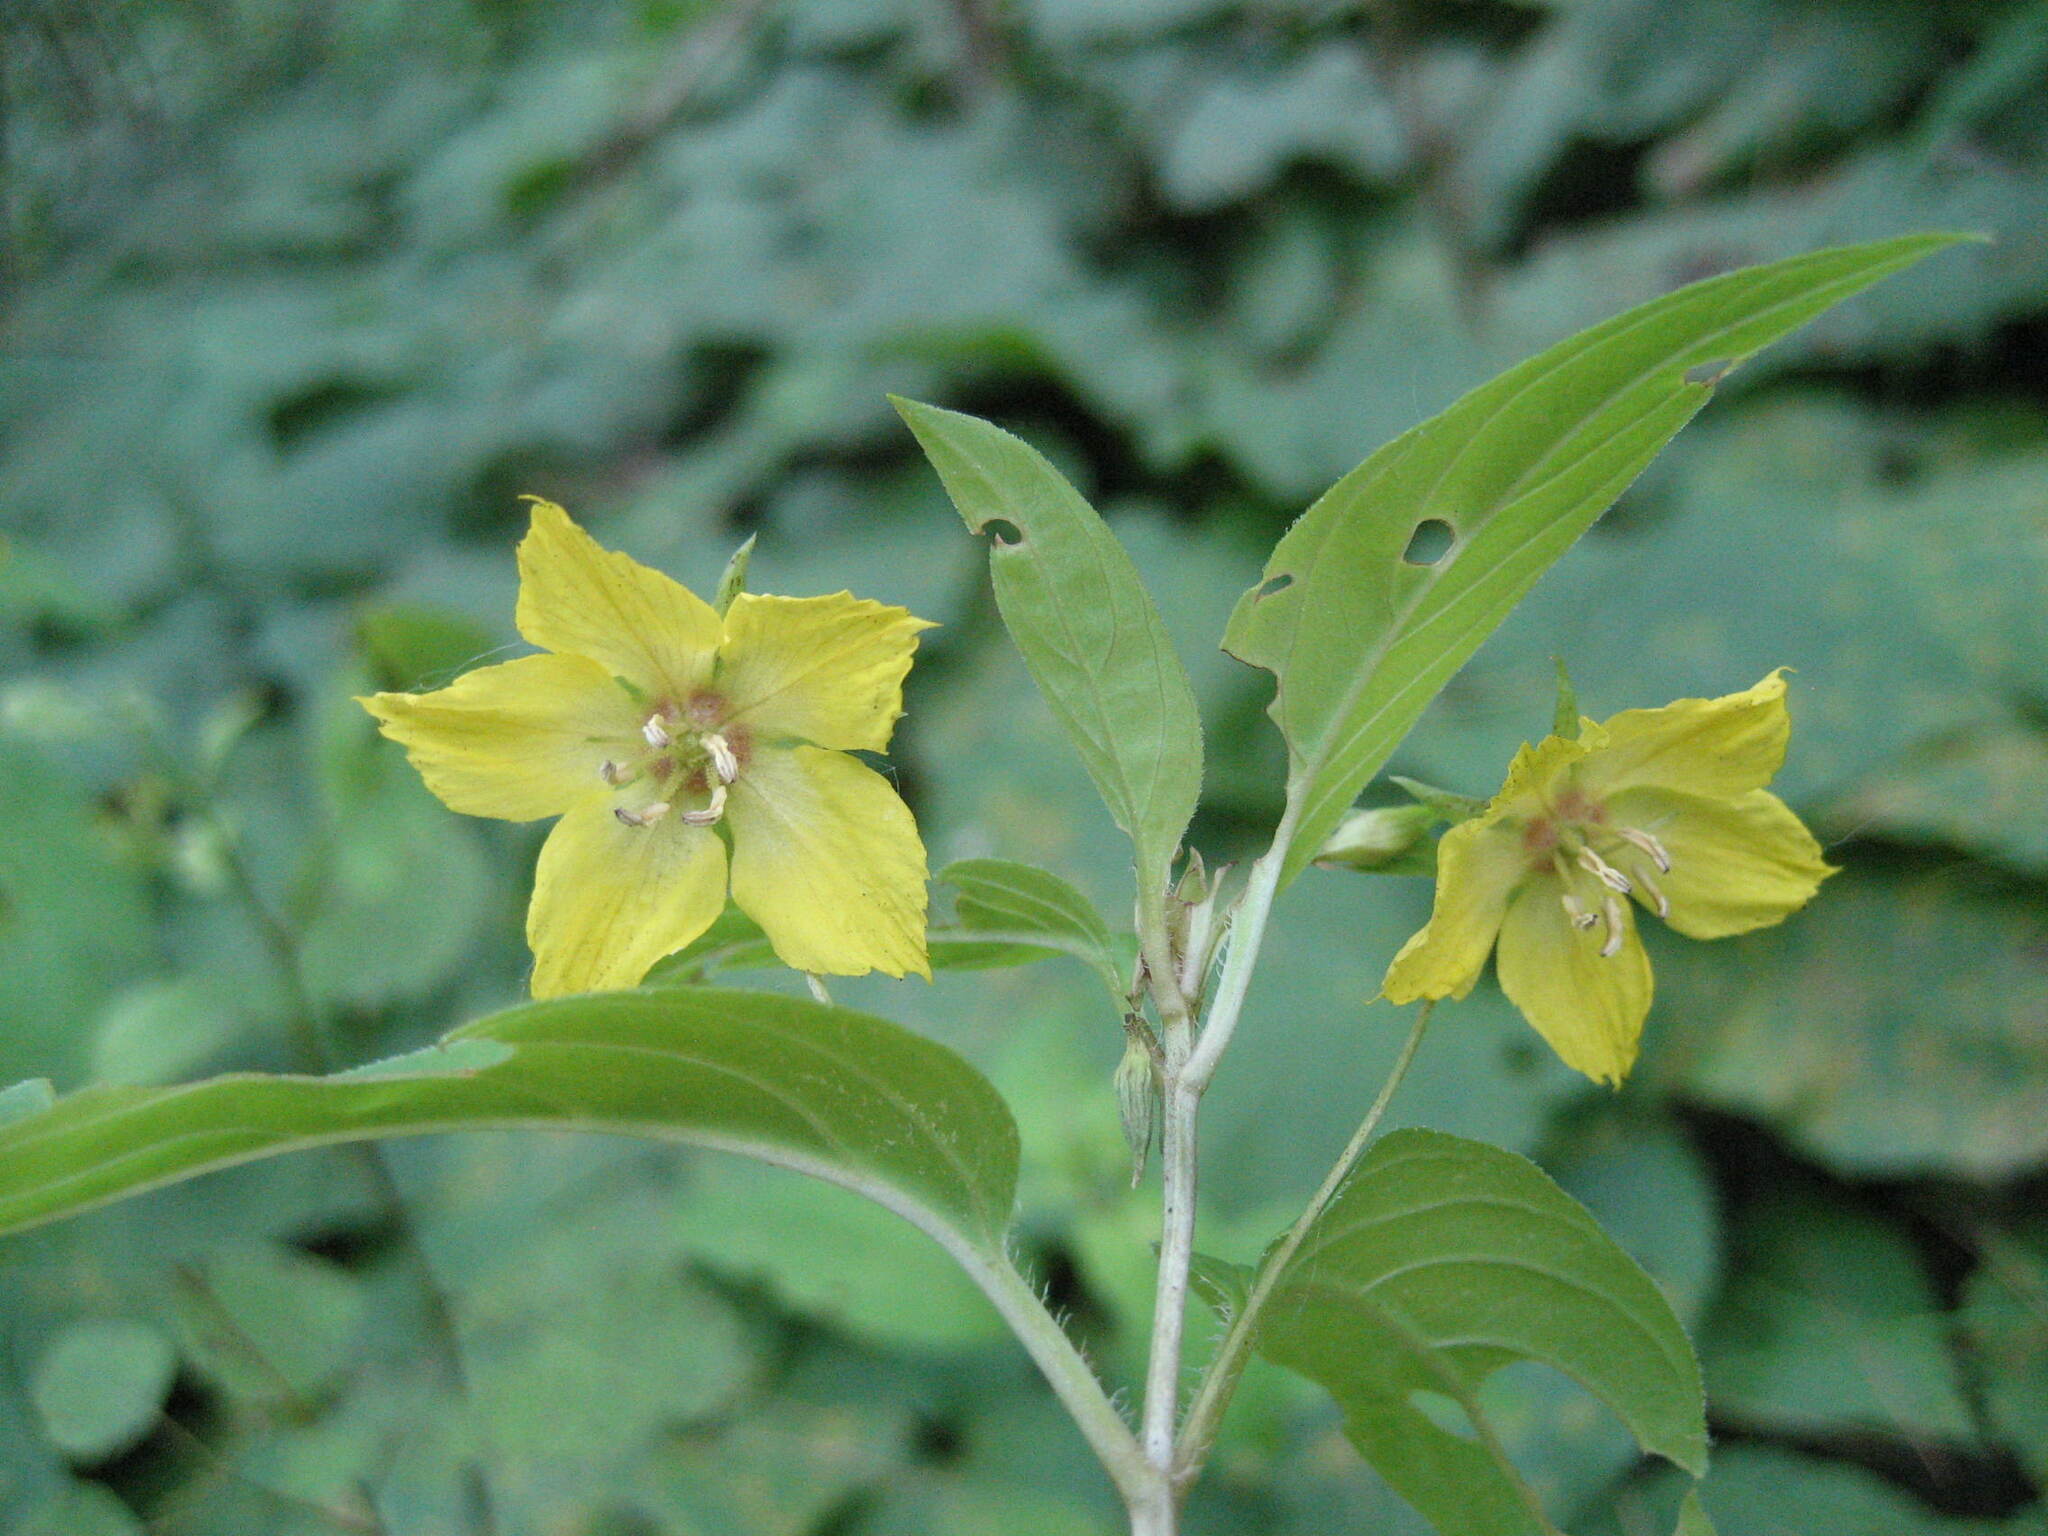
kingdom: Plantae
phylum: Tracheophyta
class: Magnoliopsida
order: Ericales
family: Primulaceae
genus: Lysimachia
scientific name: Lysimachia ciliata
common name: Fringed loosestrife
